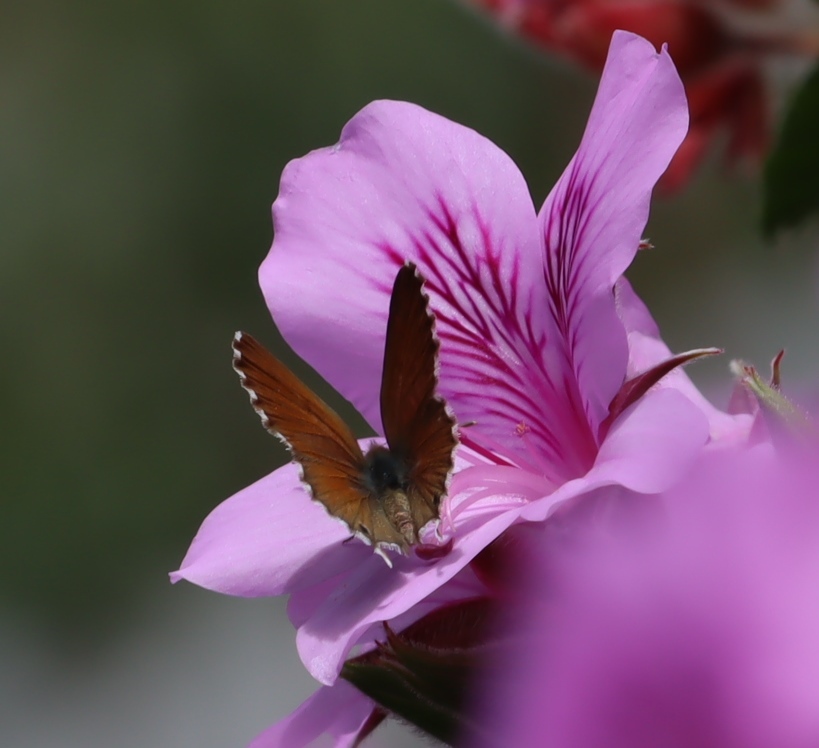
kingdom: Plantae
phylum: Tracheophyta
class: Magnoliopsida
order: Geraniales
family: Geraniaceae
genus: Pelargonium
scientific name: Pelargonium cucullatum
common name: Tree pelargonium
